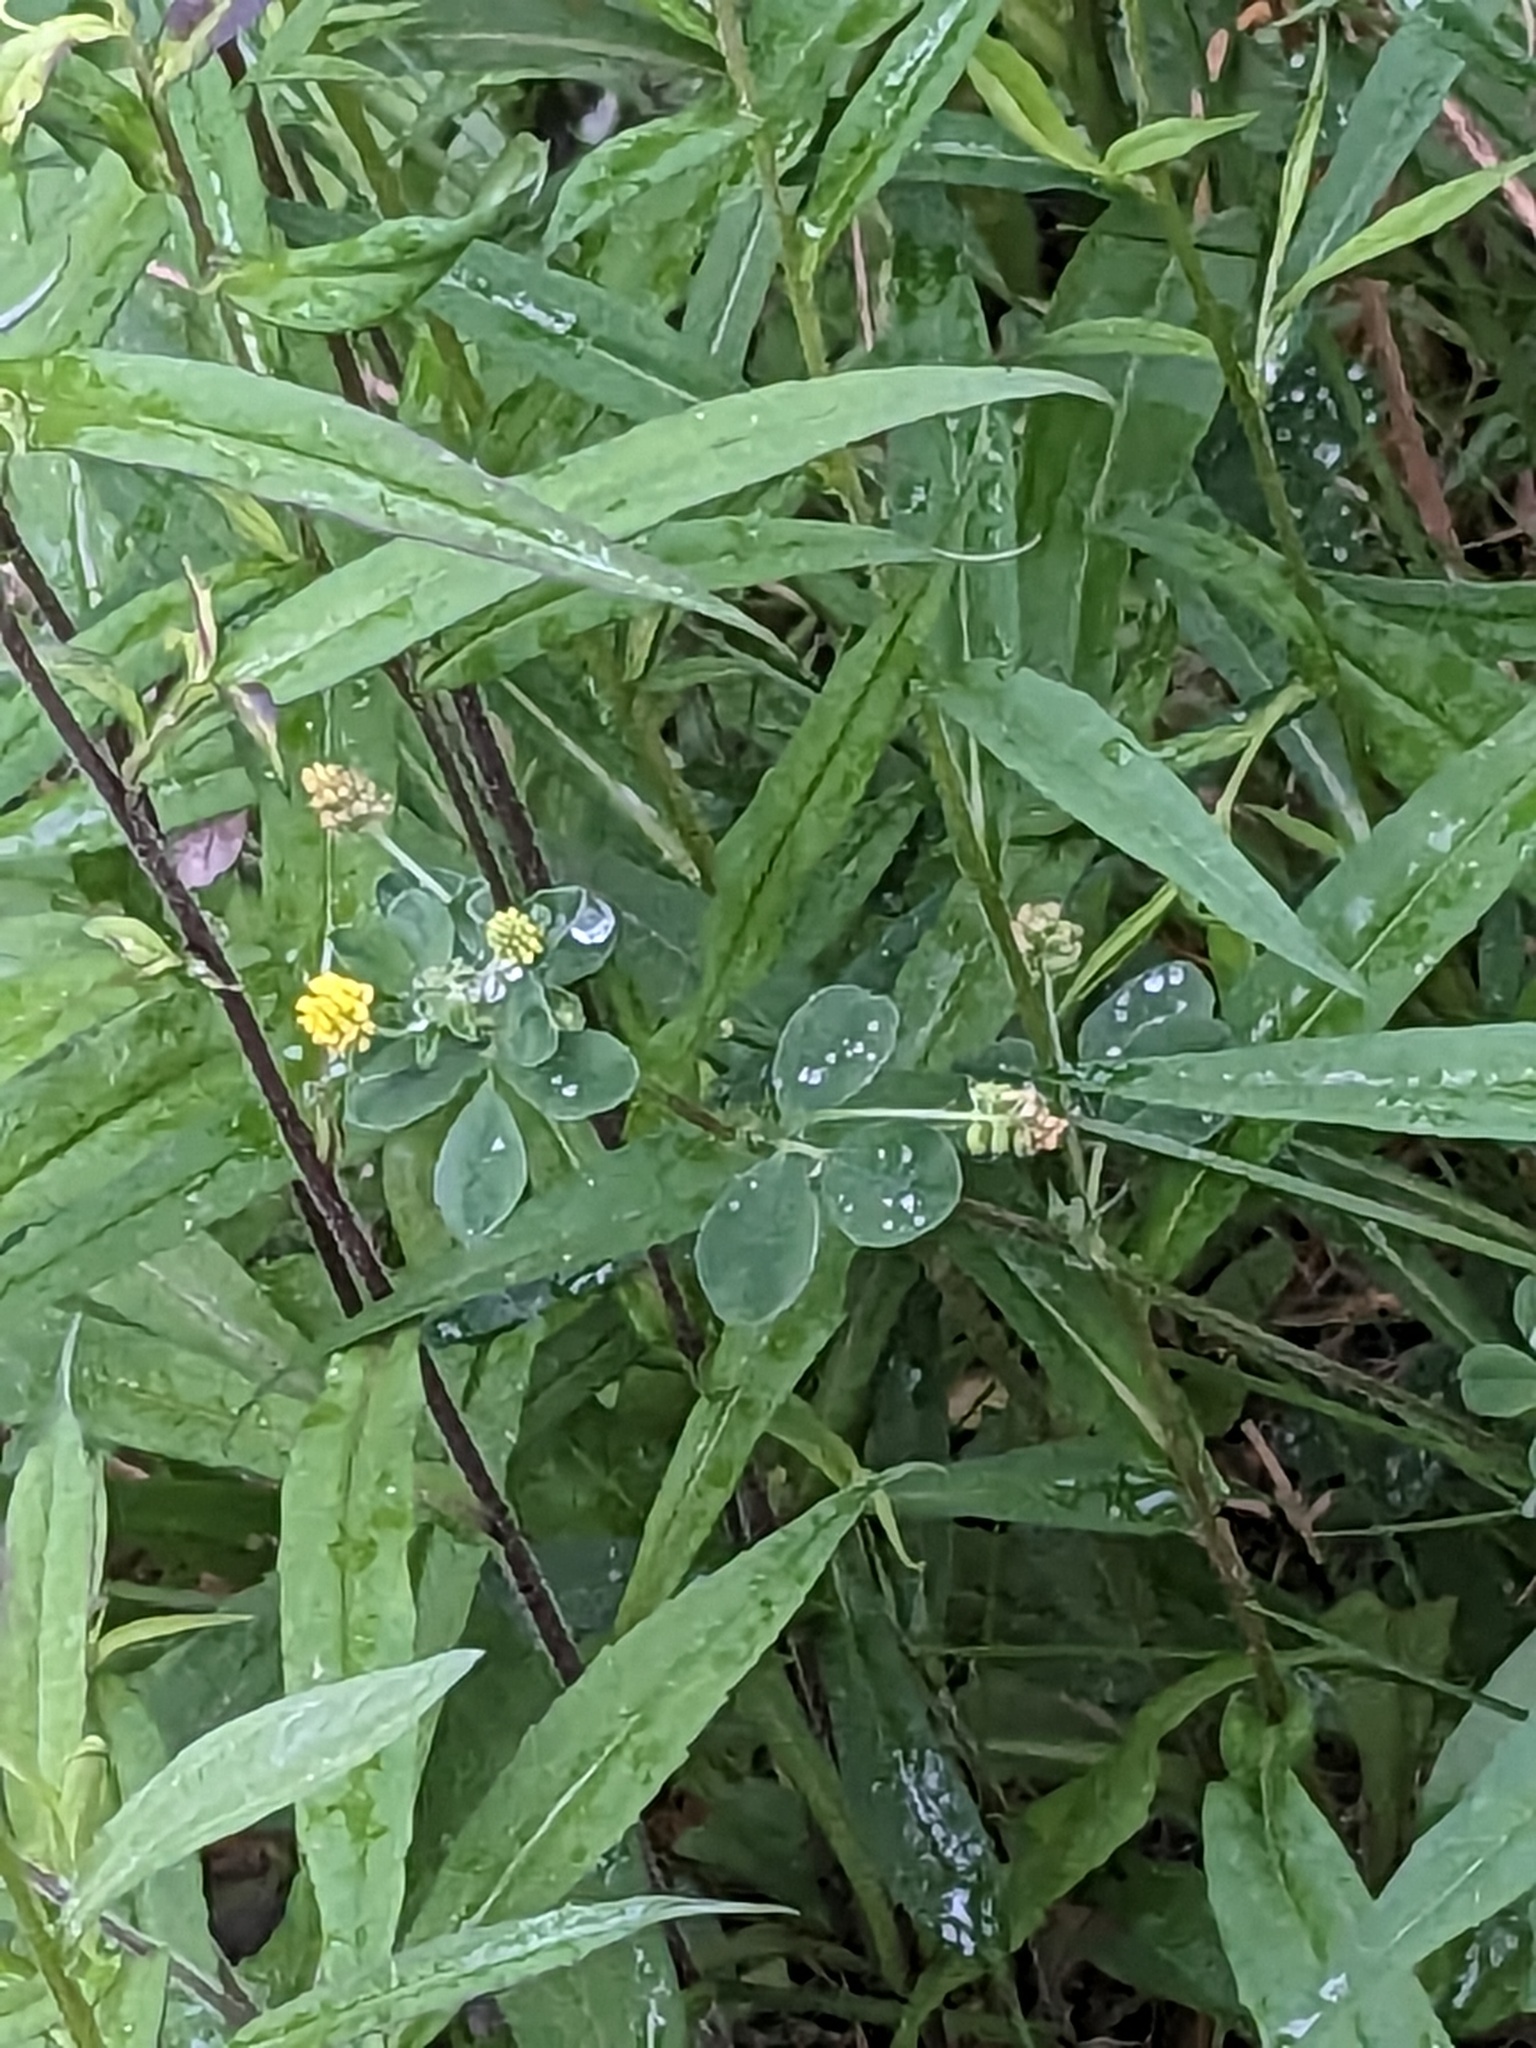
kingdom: Plantae
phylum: Tracheophyta
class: Magnoliopsida
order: Fabales
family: Fabaceae
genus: Medicago
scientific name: Medicago lupulina
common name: Black medick
